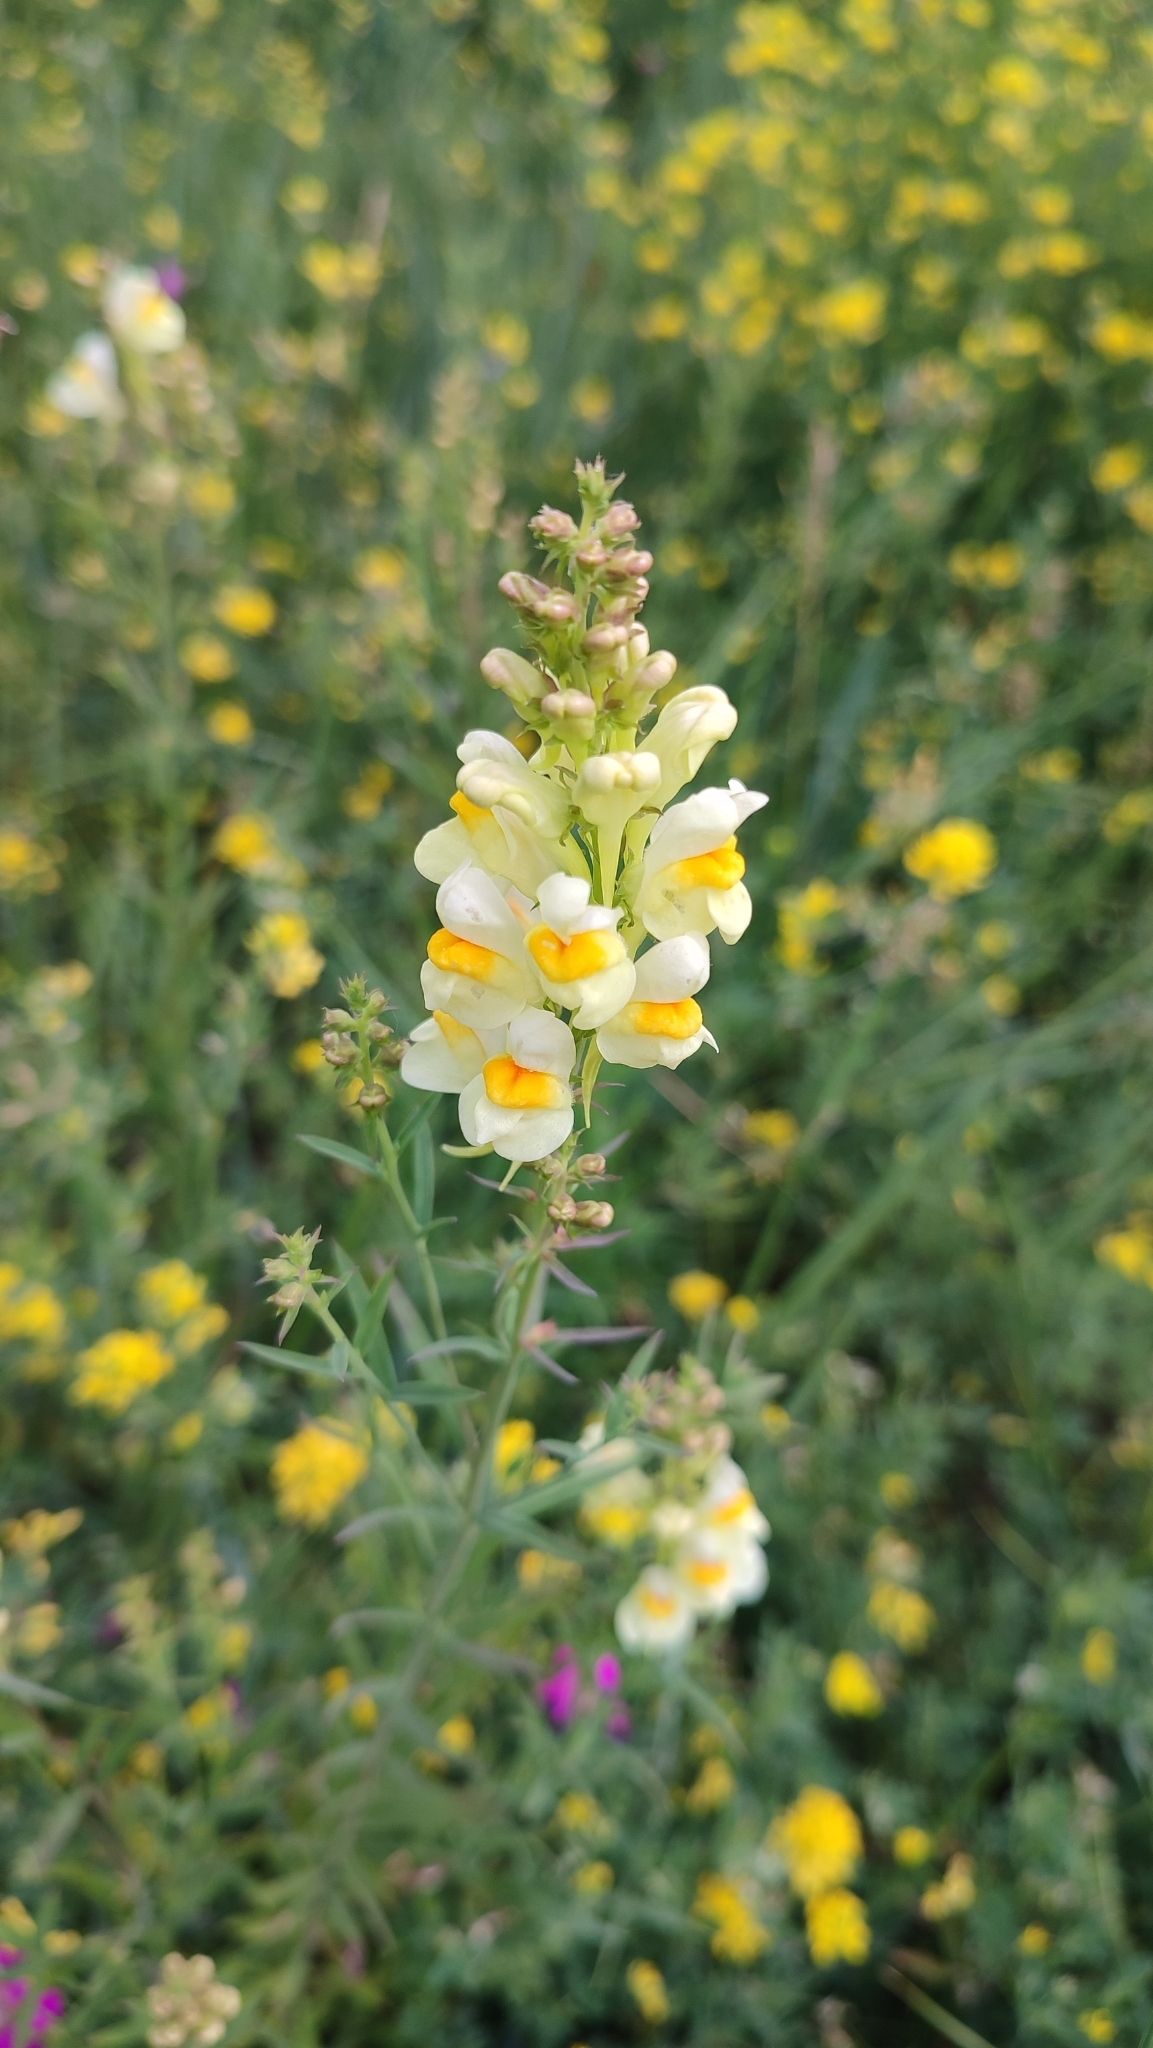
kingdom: Plantae
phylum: Tracheophyta
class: Magnoliopsida
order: Lamiales
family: Plantaginaceae
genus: Linaria
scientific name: Linaria vulgaris
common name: Butter and eggs
